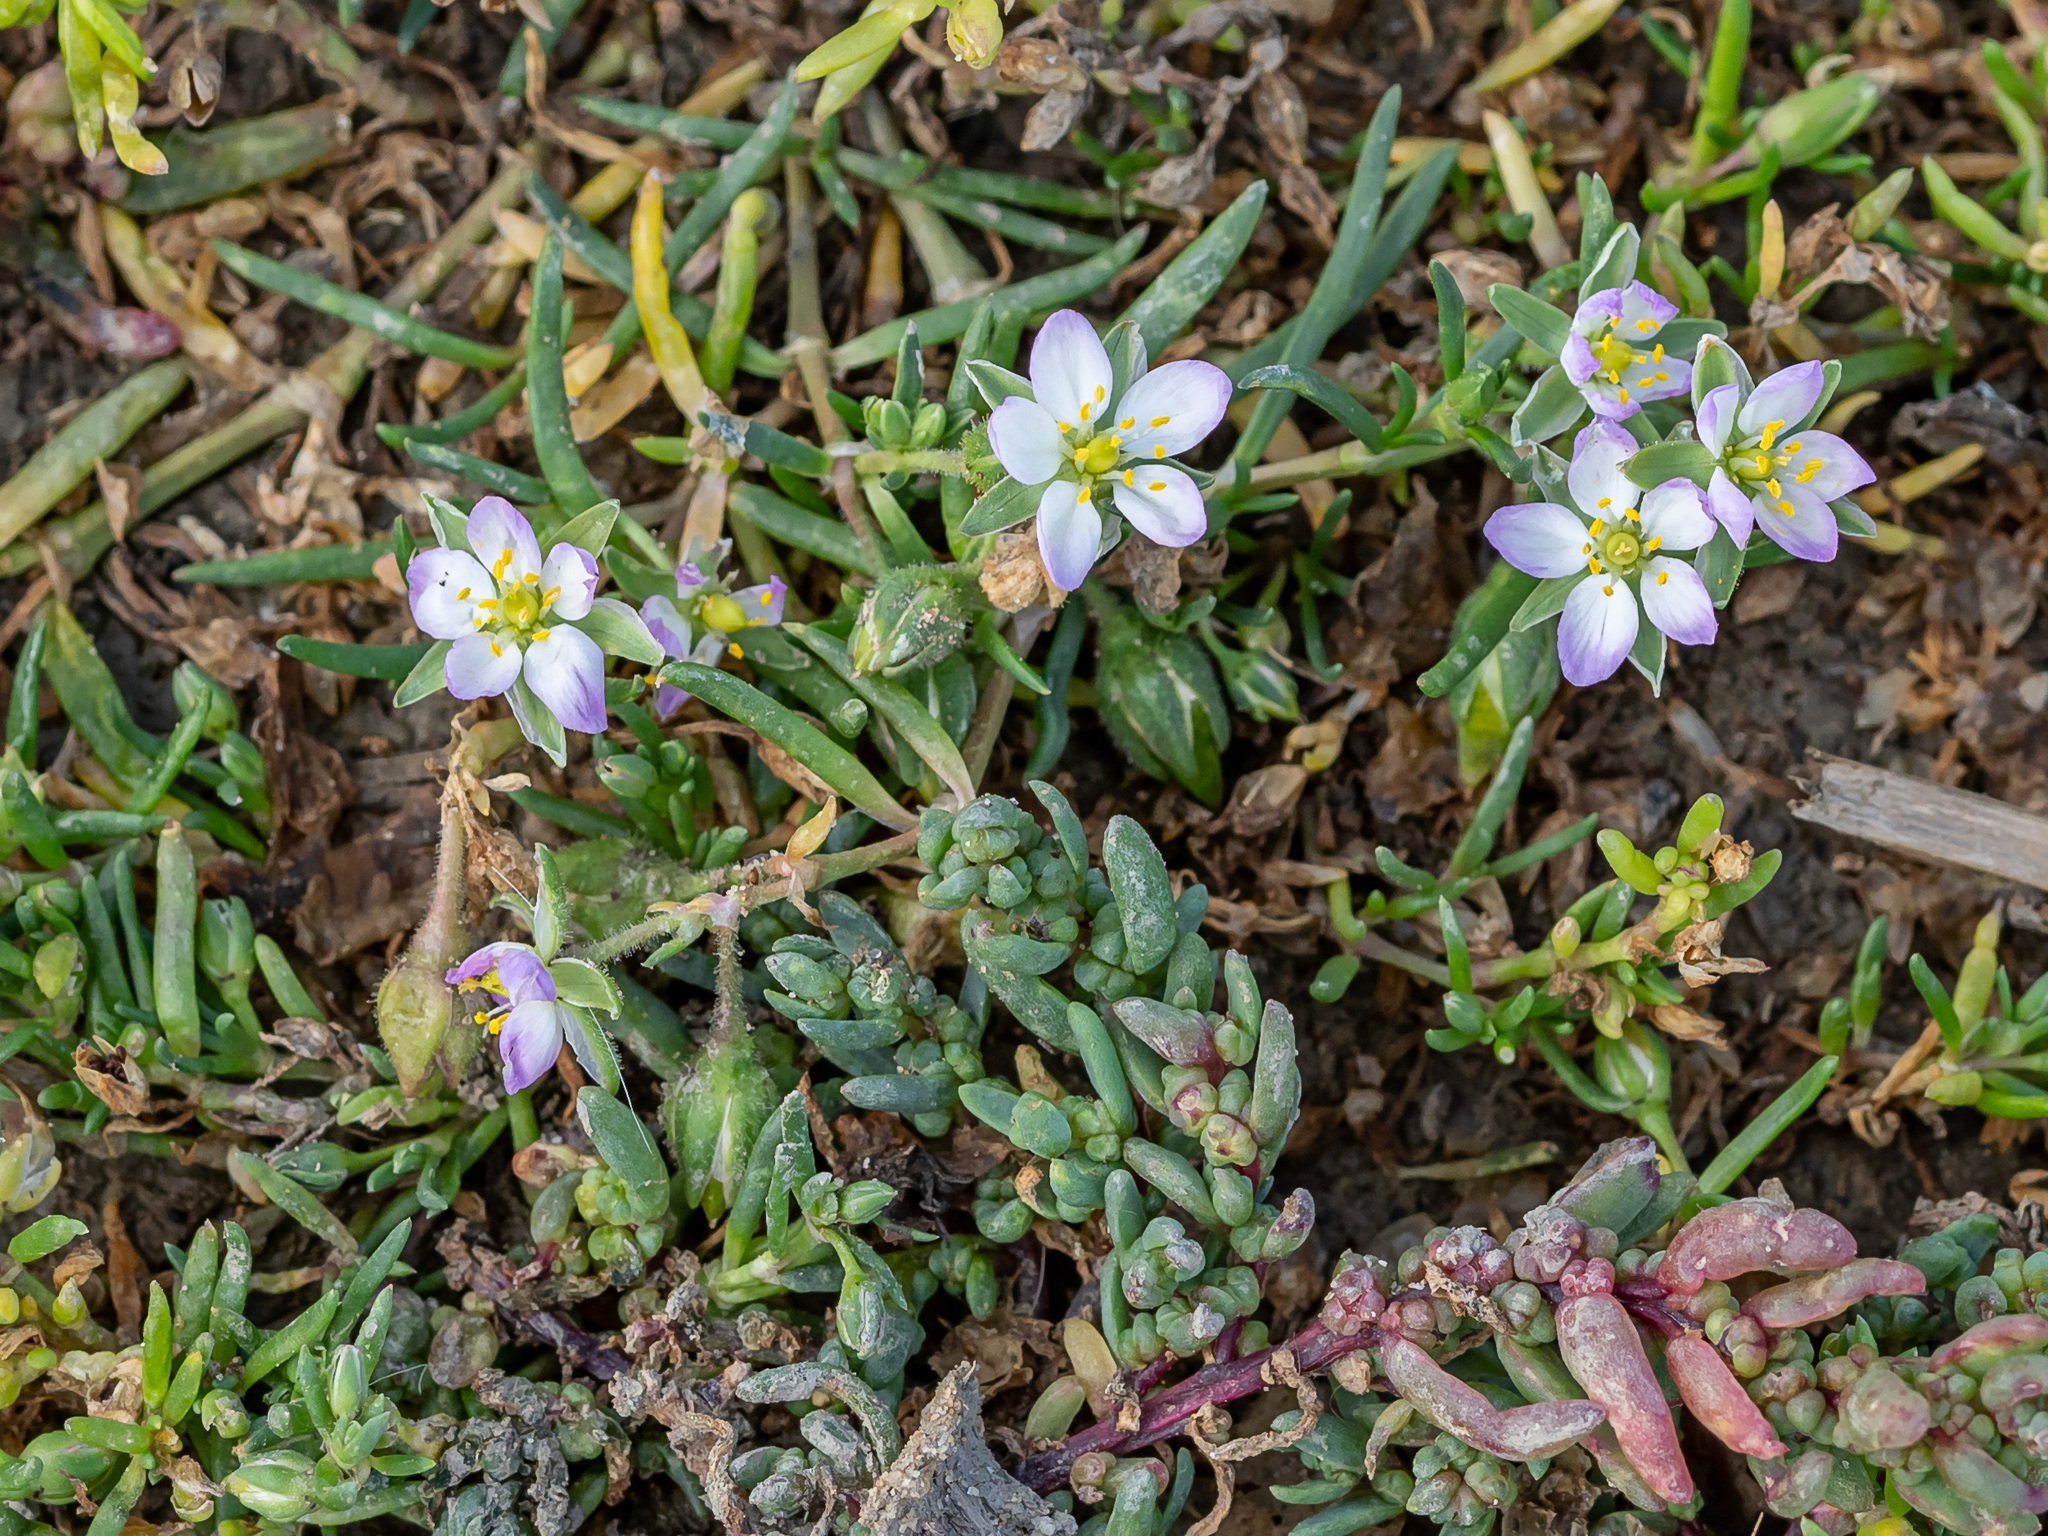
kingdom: Plantae
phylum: Tracheophyta
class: Magnoliopsida
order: Caryophyllales
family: Caryophyllaceae
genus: Spergularia
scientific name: Spergularia marina
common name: Lesser sea-spurrey
